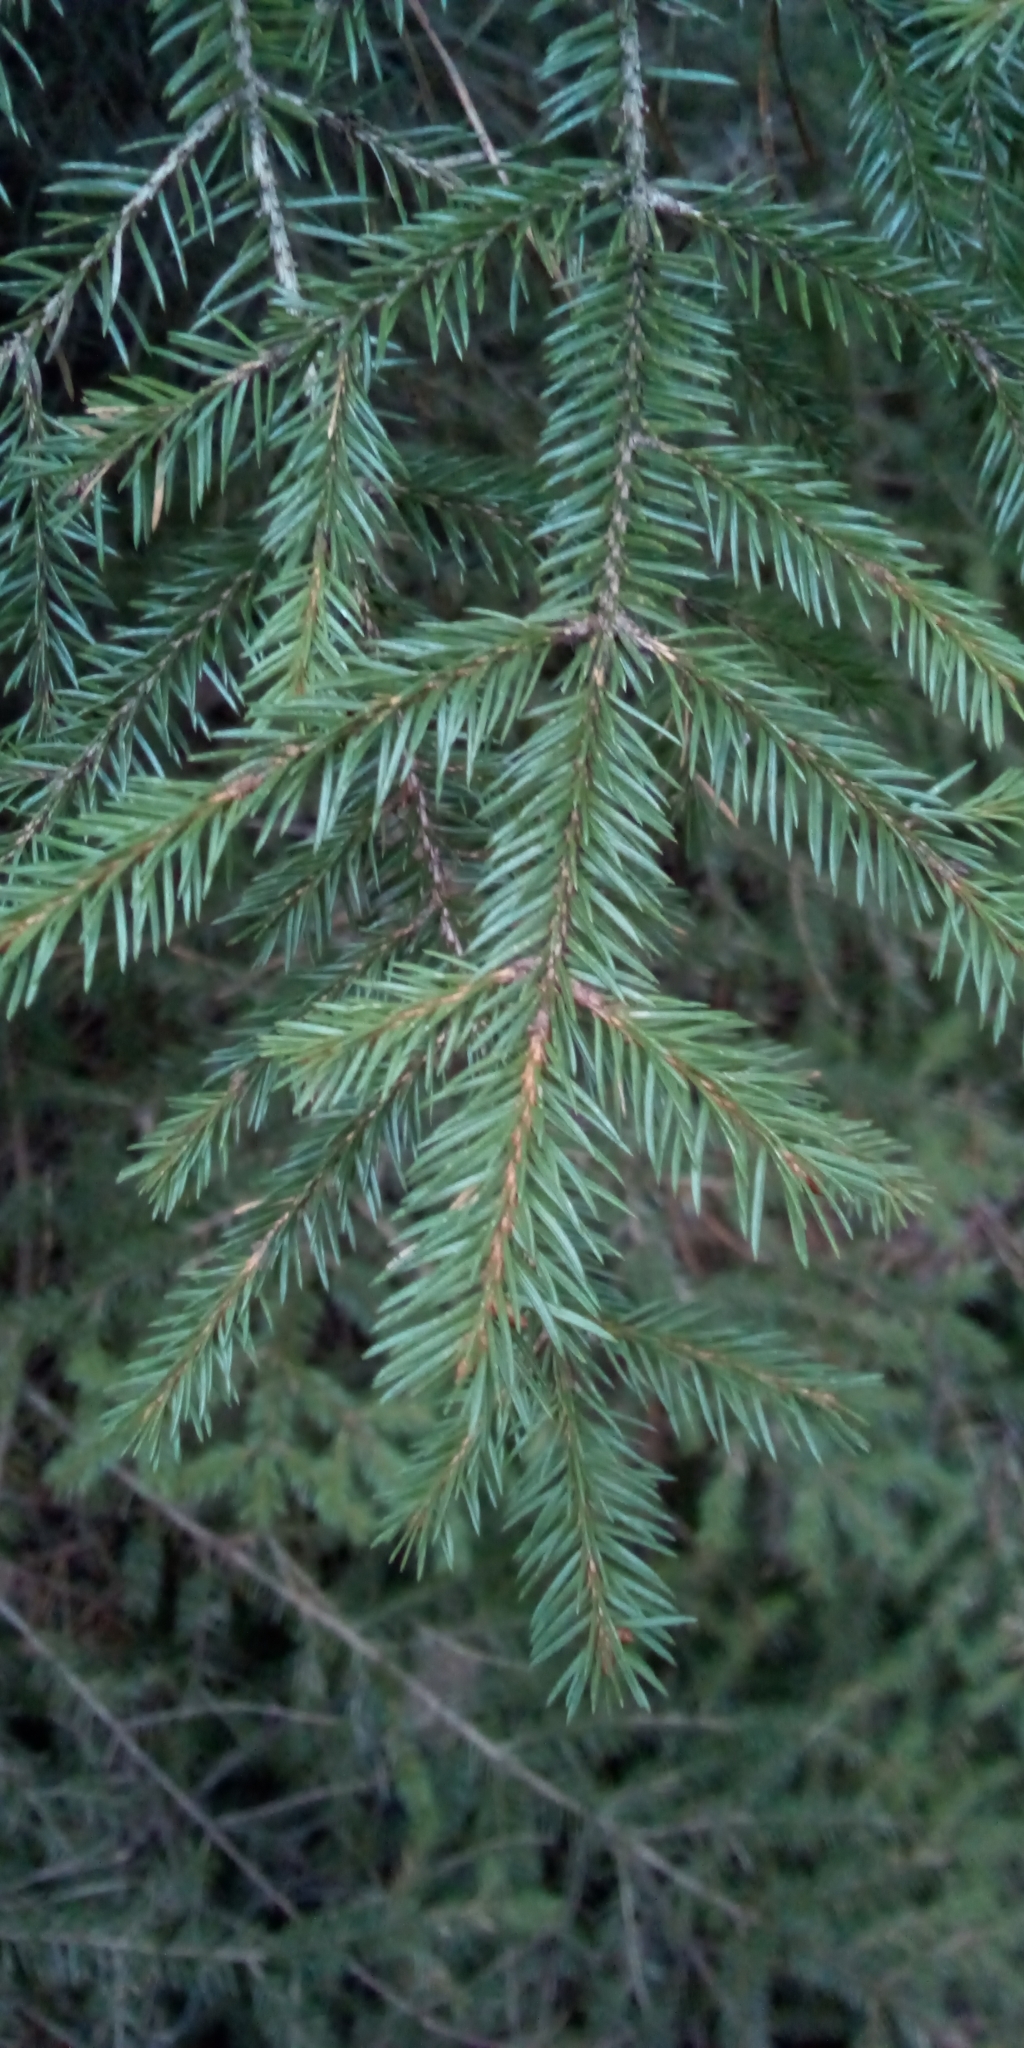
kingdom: Plantae
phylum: Tracheophyta
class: Pinopsida
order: Pinales
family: Pinaceae
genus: Picea
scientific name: Picea abies
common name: Norway spruce
